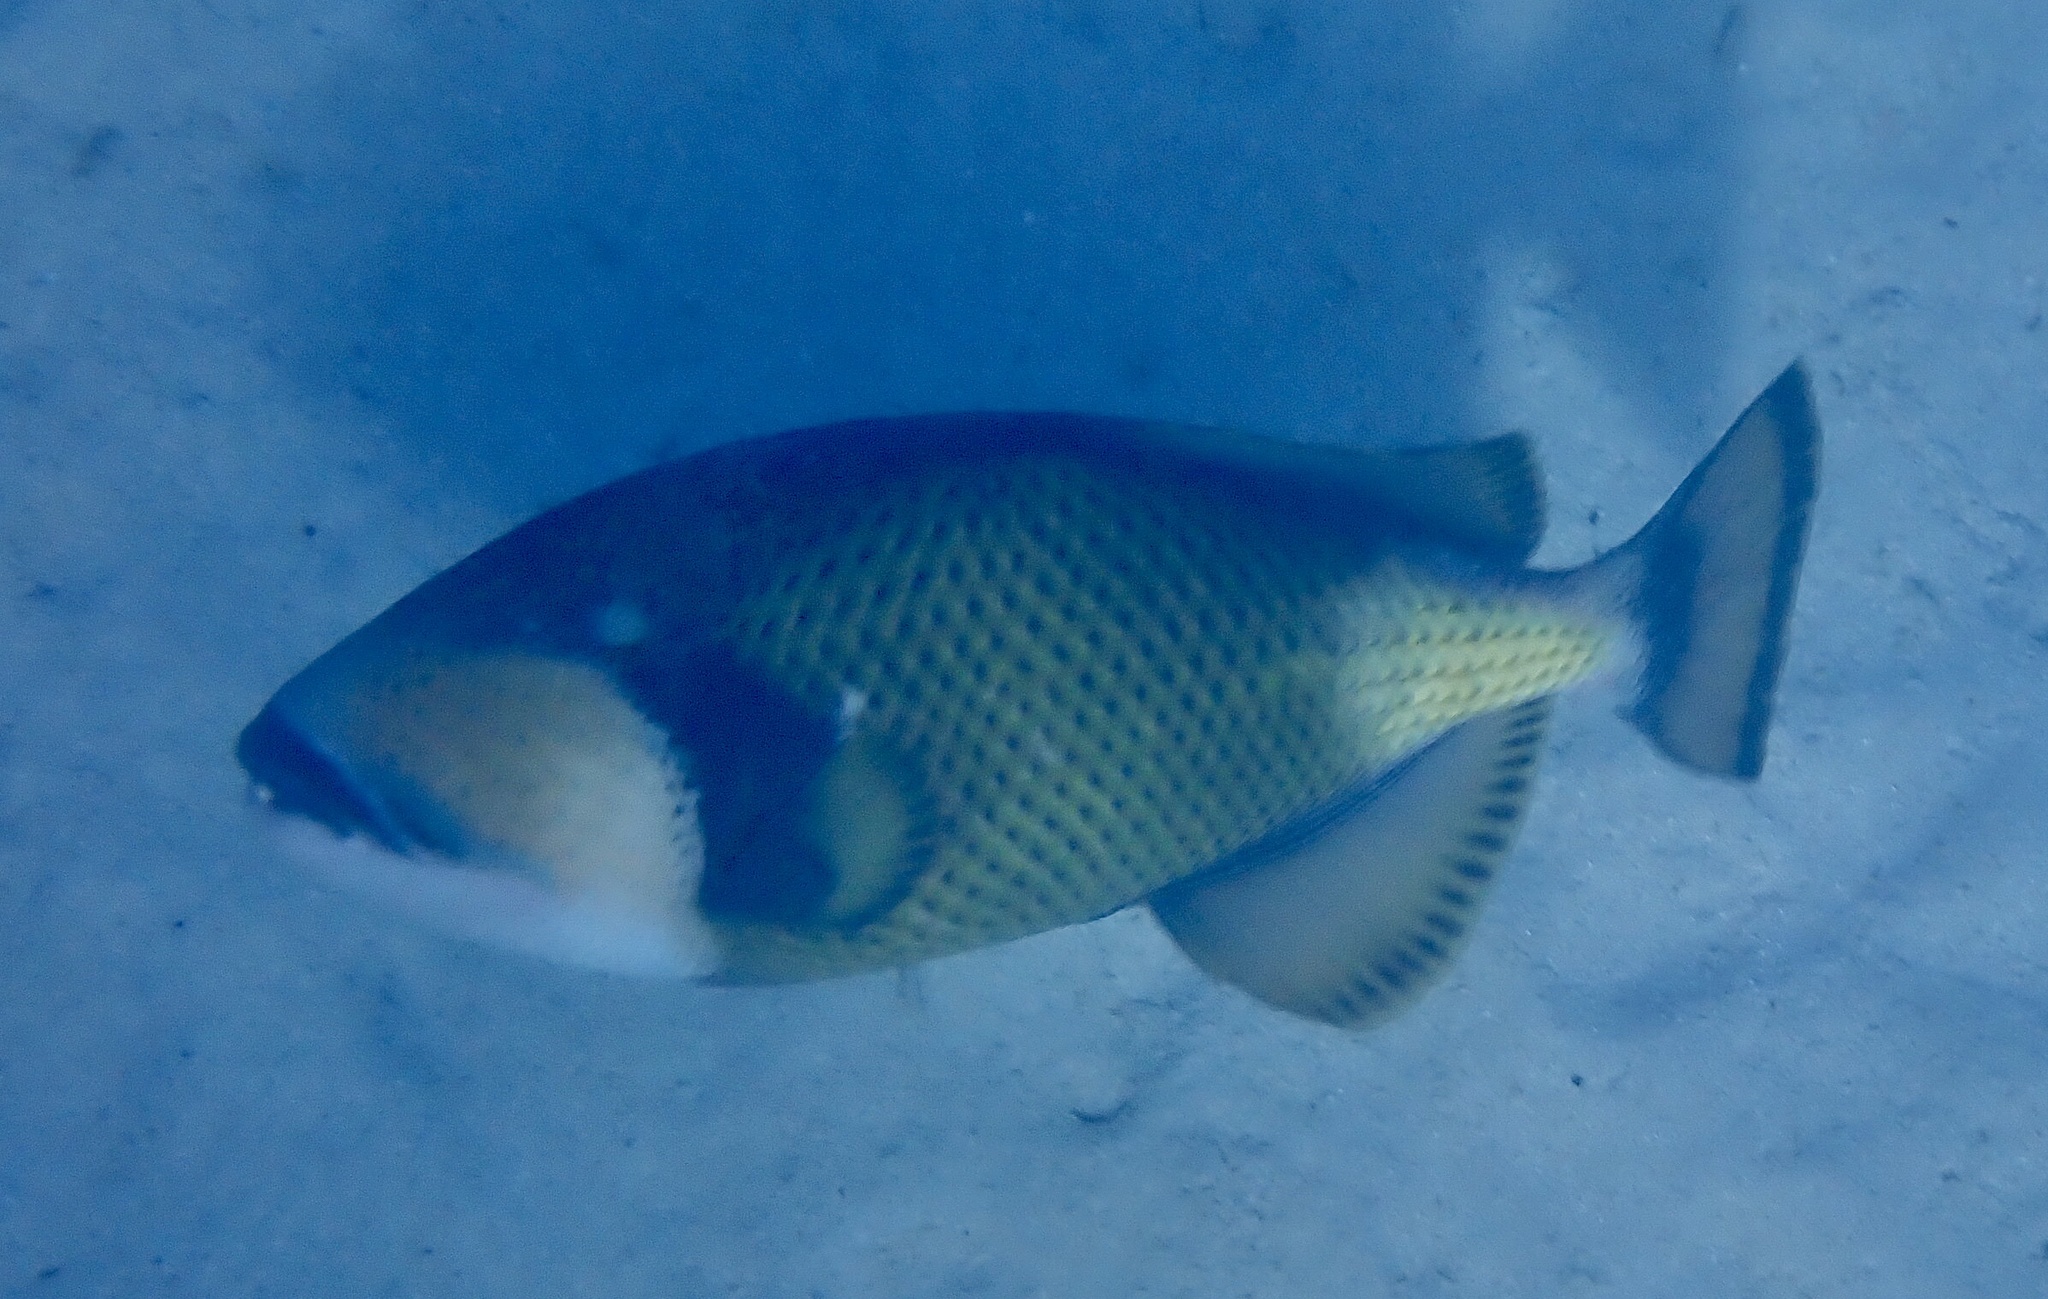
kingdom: Animalia
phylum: Chordata
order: Tetraodontiformes
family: Balistidae
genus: Balistoides
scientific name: Balistoides viridescens
